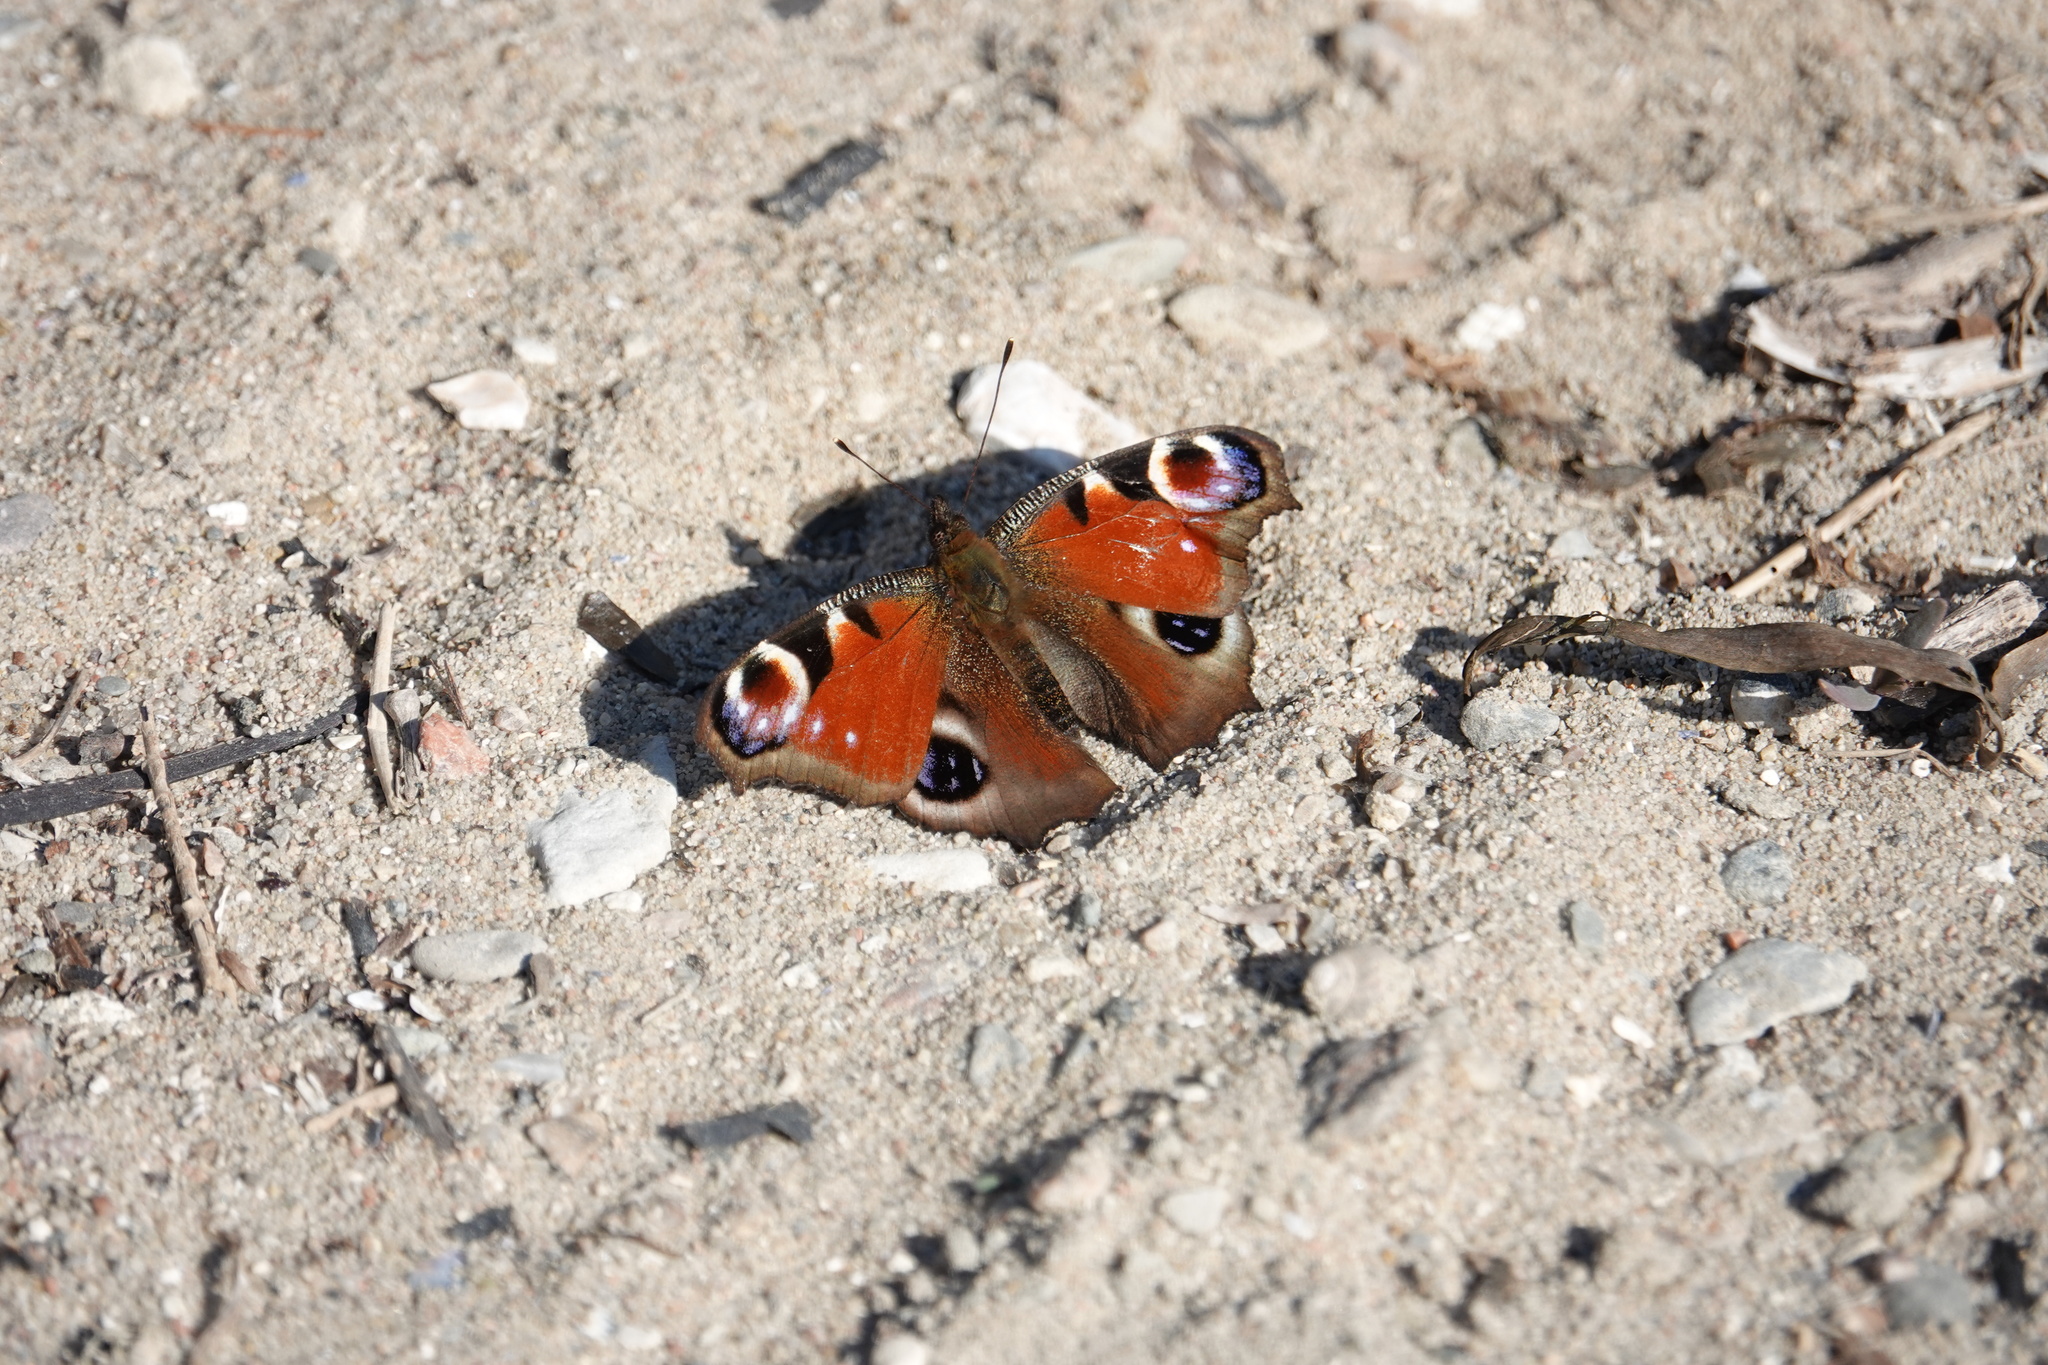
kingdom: Animalia
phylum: Arthropoda
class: Insecta
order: Lepidoptera
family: Nymphalidae
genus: Aglais
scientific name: Aglais io
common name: Peacock
